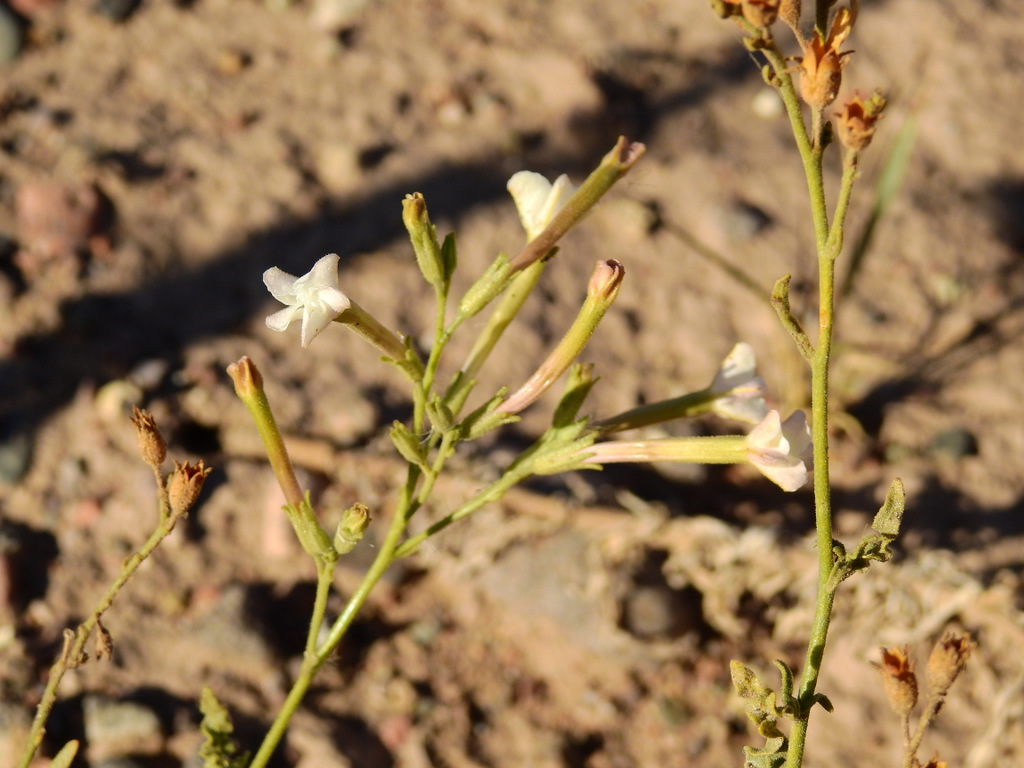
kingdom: Plantae
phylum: Tracheophyta
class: Magnoliopsida
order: Solanales
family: Solanaceae
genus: Nicotiana
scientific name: Nicotiana noctiflora
